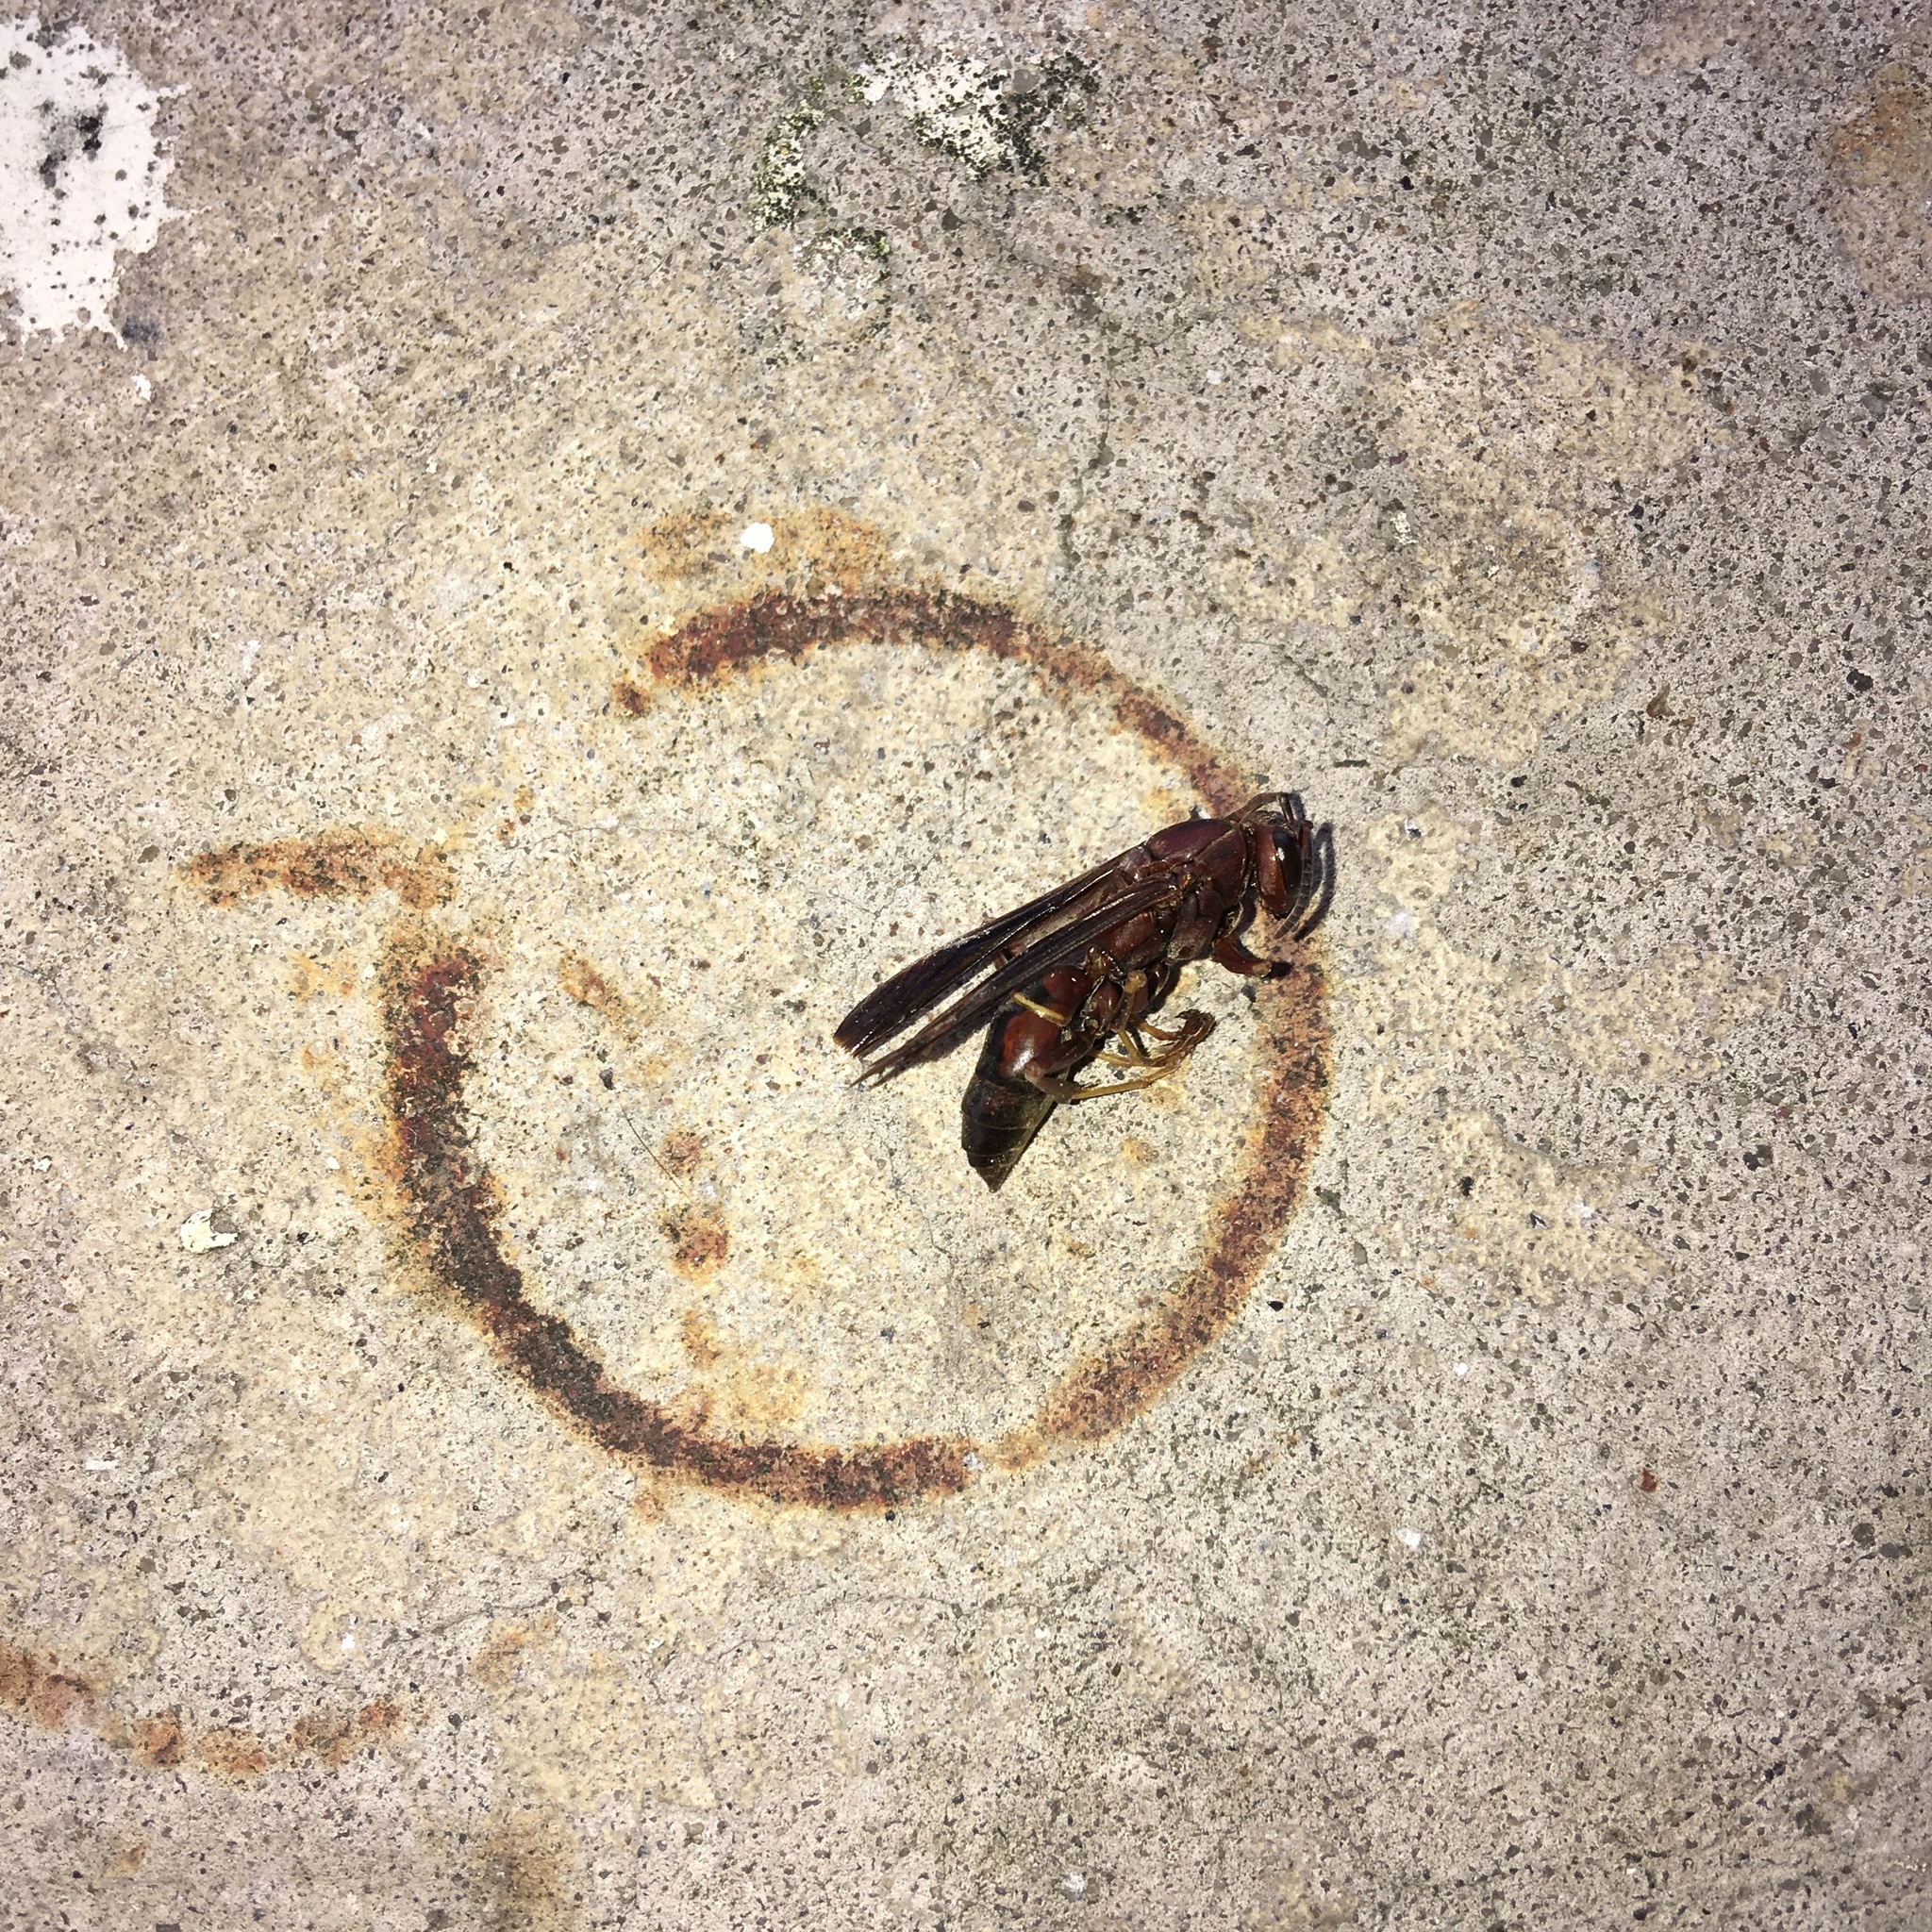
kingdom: Animalia
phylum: Arthropoda
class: Insecta
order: Hymenoptera
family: Vespidae
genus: Fuscopolistes
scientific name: Fuscopolistes
